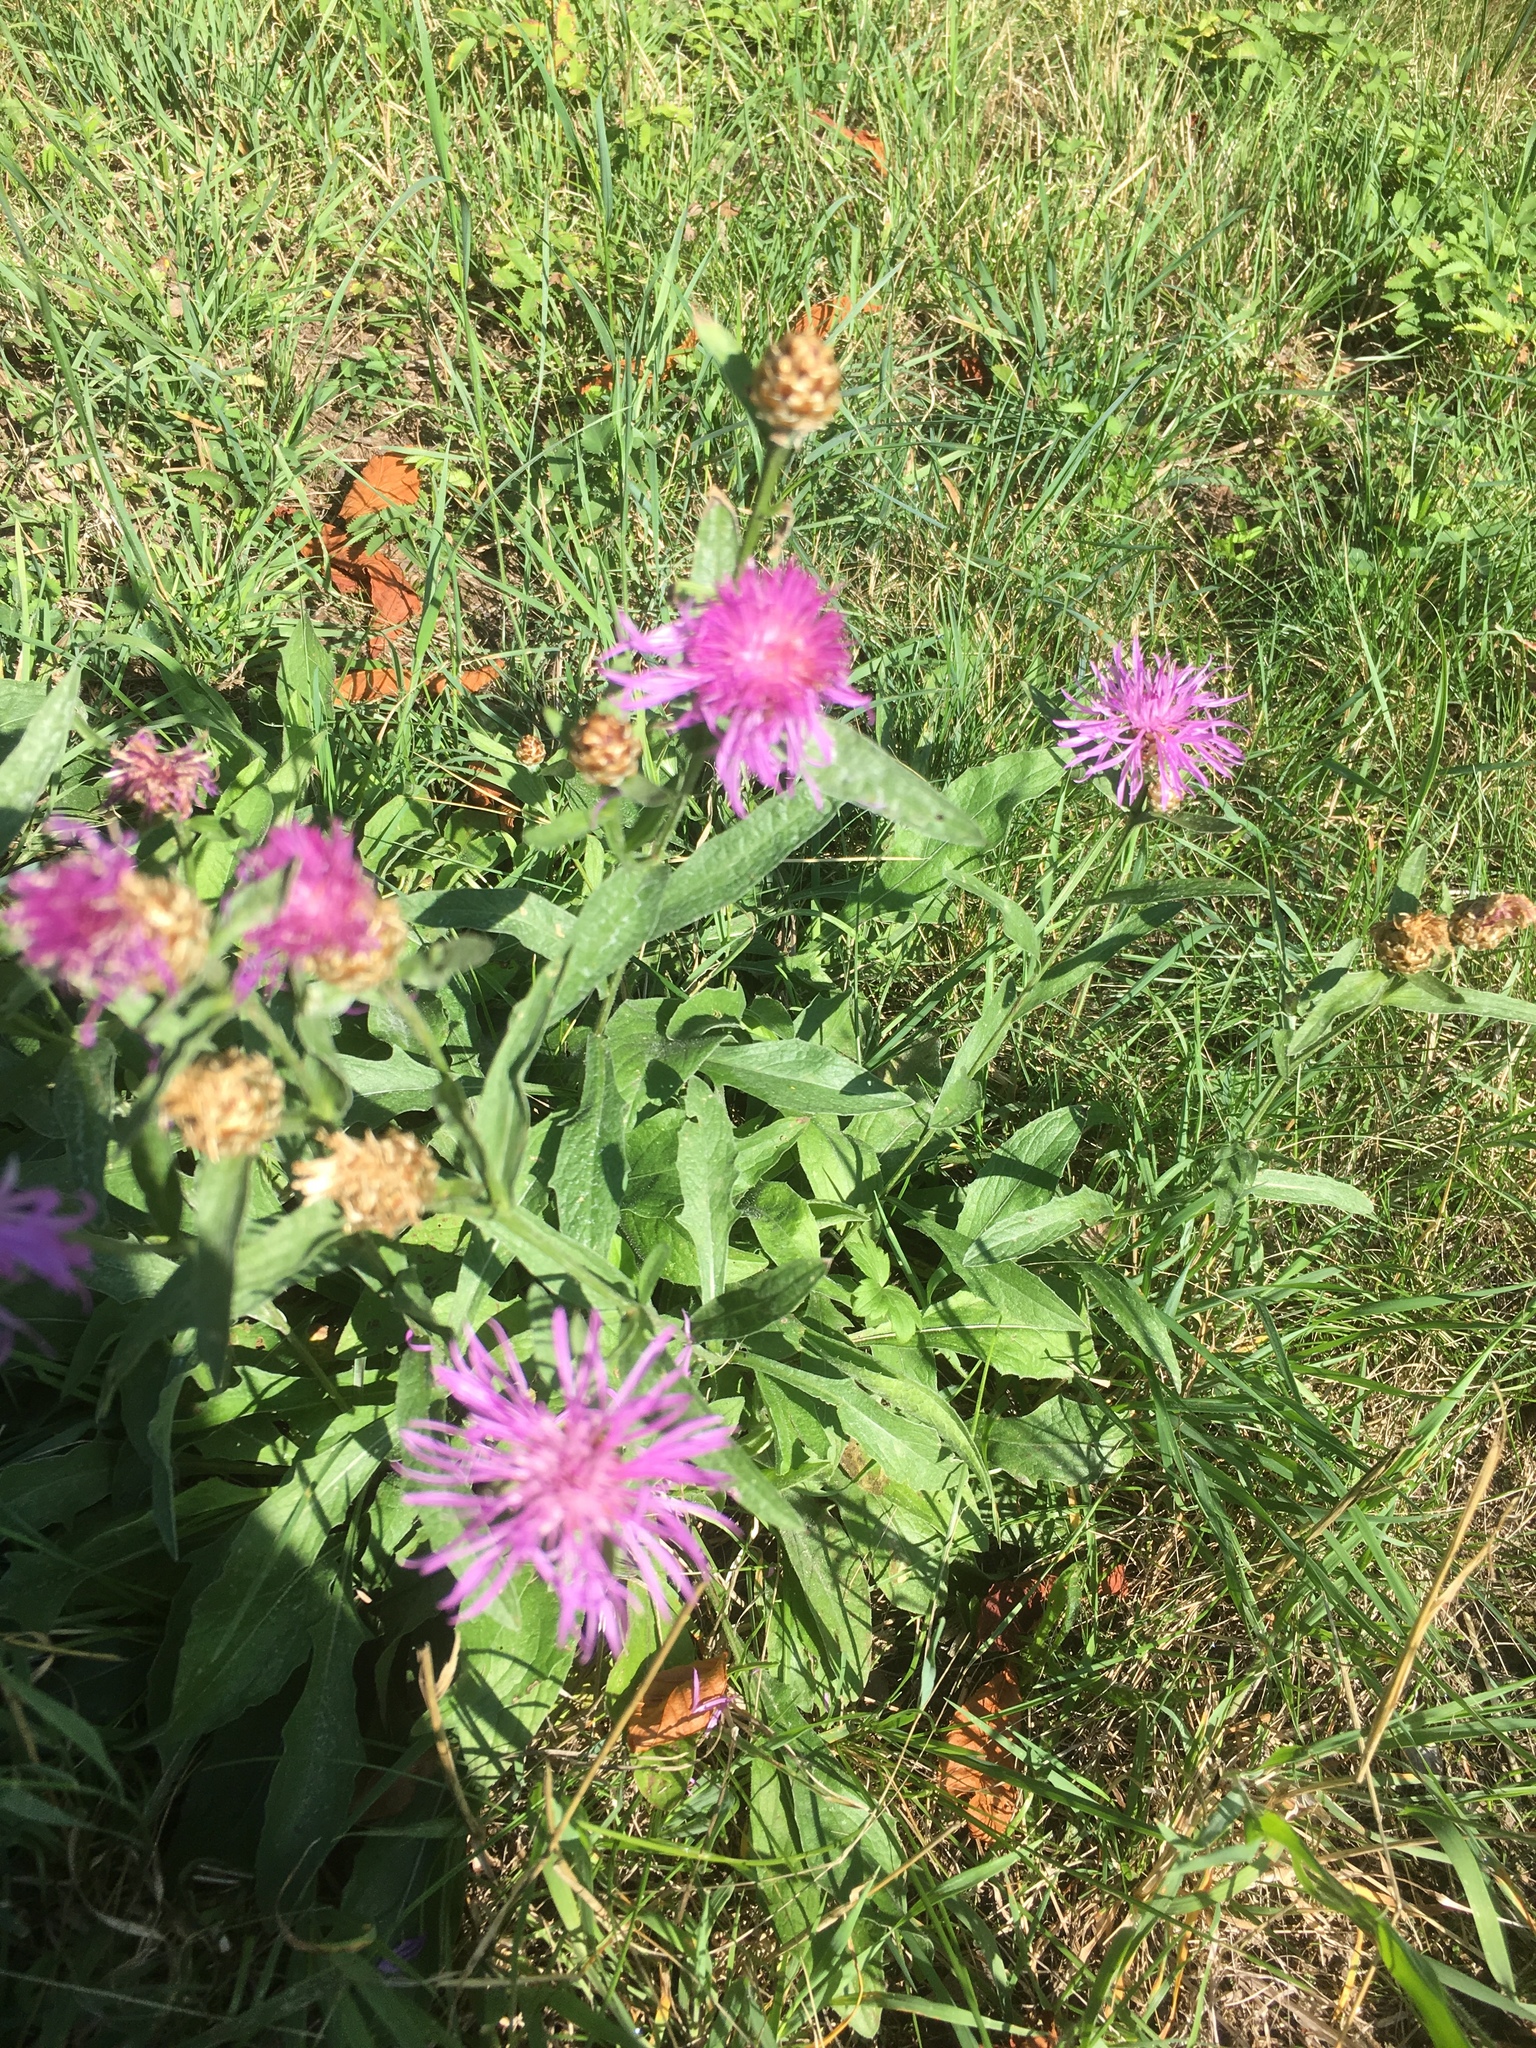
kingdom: Plantae
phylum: Tracheophyta
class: Magnoliopsida
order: Asterales
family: Asteraceae
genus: Centaurea
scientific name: Centaurea jacea
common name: Brown knapweed
